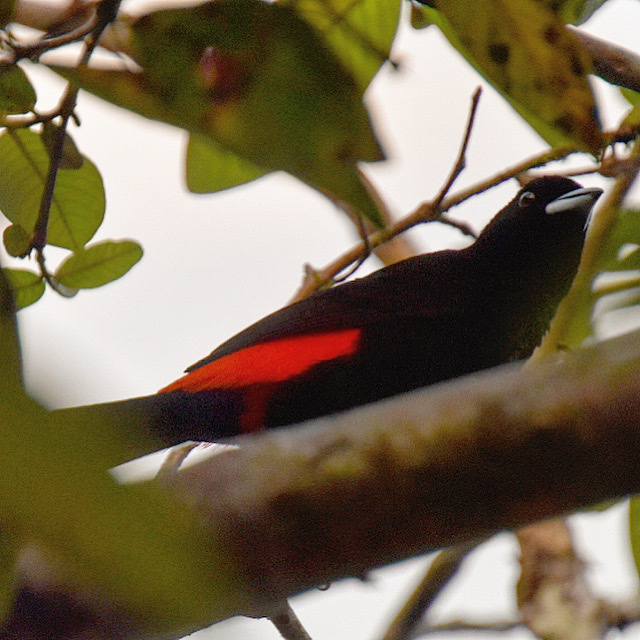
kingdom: Animalia
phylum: Chordata
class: Aves
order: Passeriformes
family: Thraupidae
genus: Ramphocelus
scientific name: Ramphocelus passerinii
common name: Passerini's tanager
